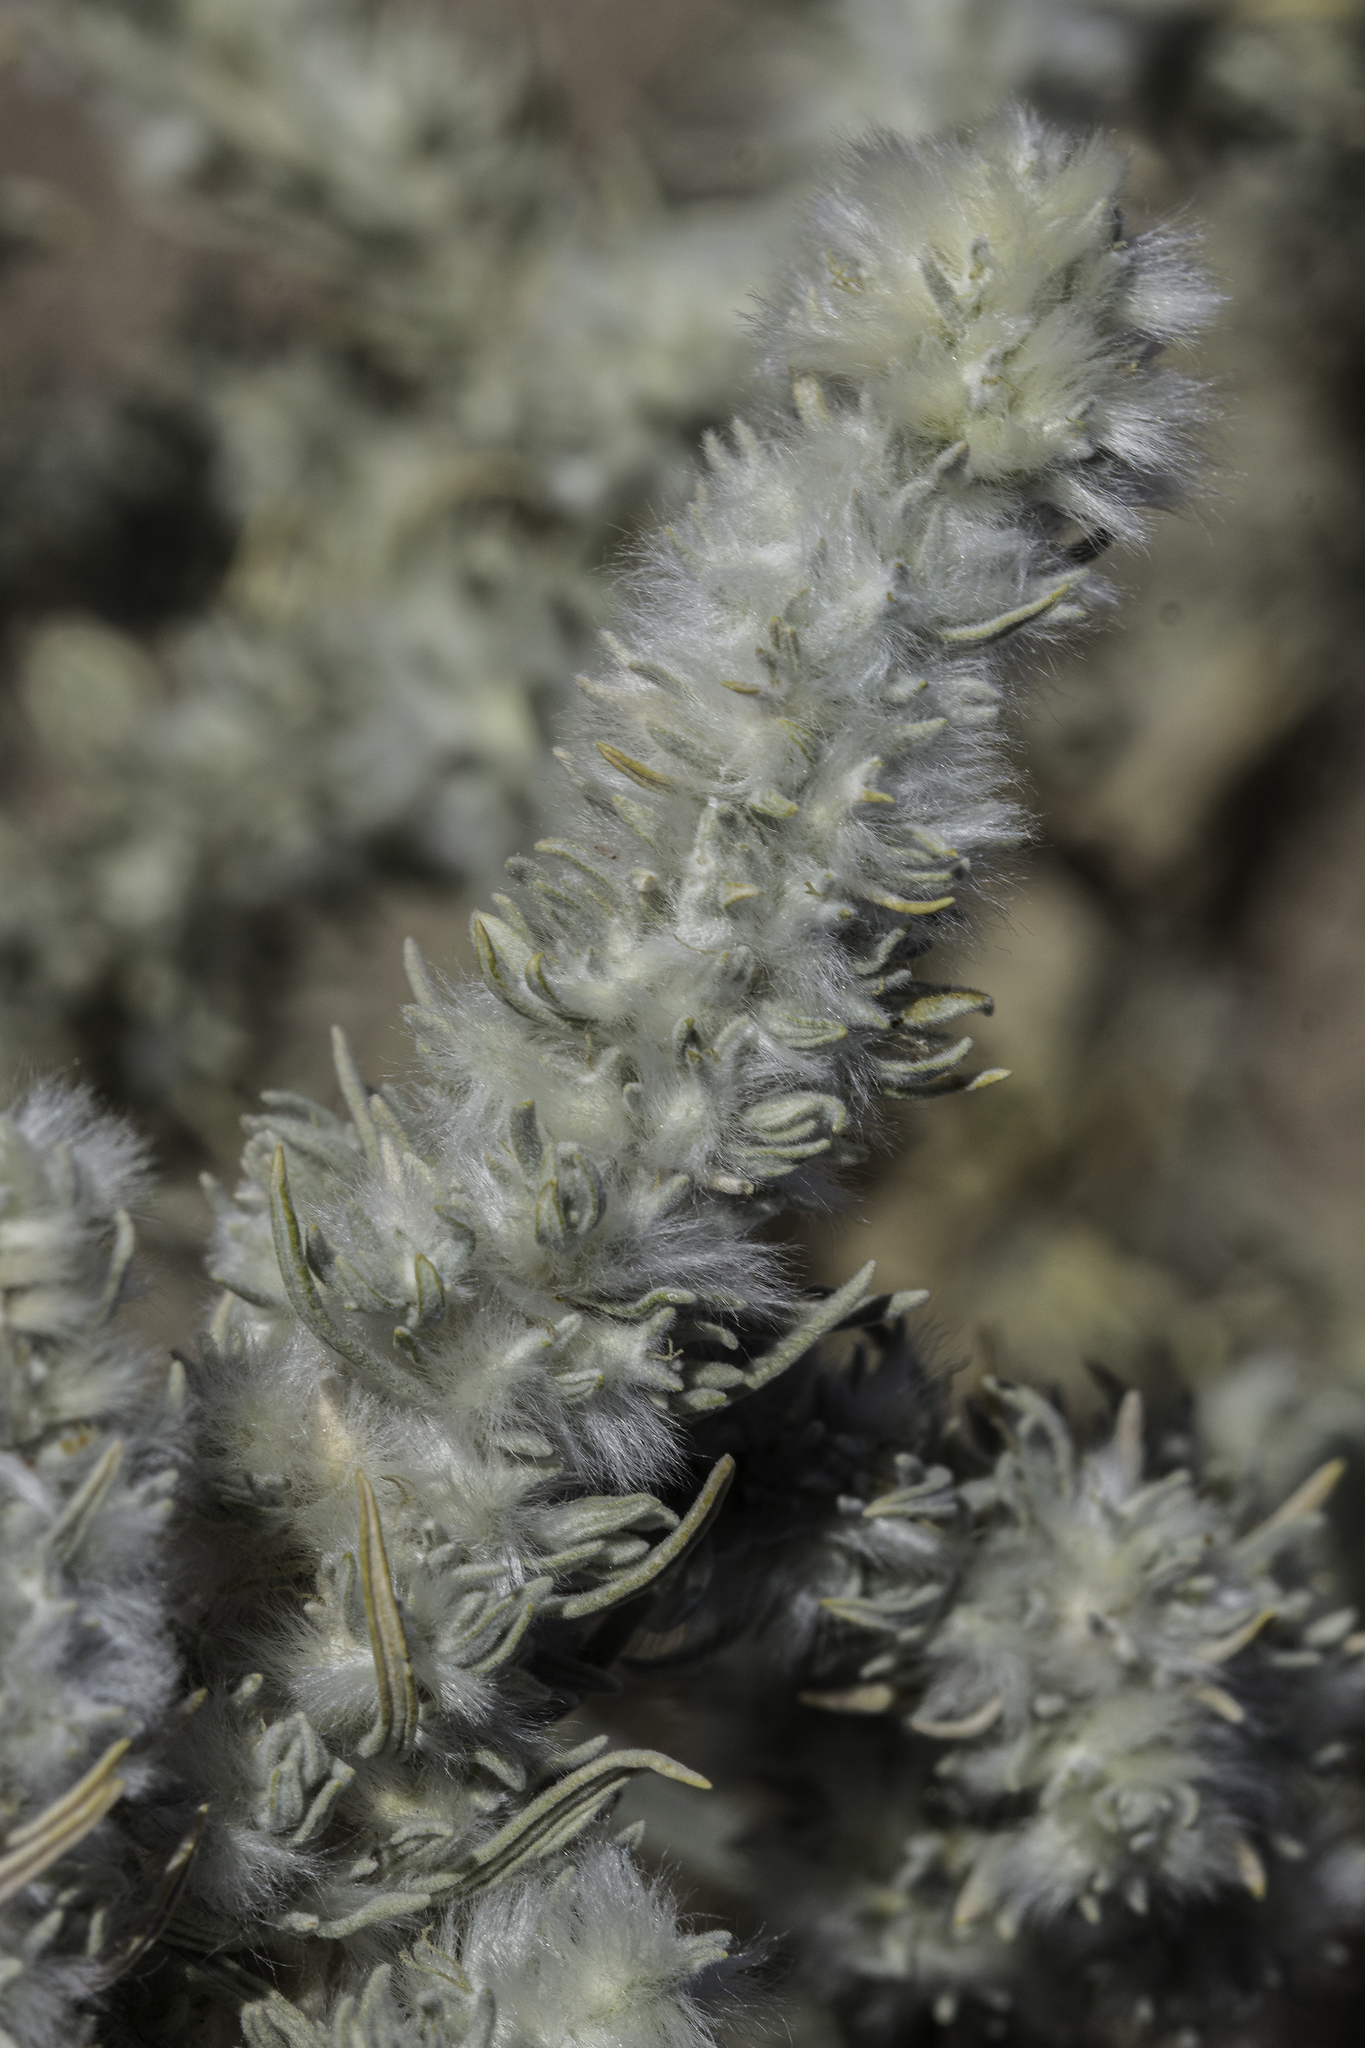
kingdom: Plantae
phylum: Tracheophyta
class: Magnoliopsida
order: Caryophyllales
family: Amaranthaceae
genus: Krascheninnikovia
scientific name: Krascheninnikovia lanata
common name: Winterfat
